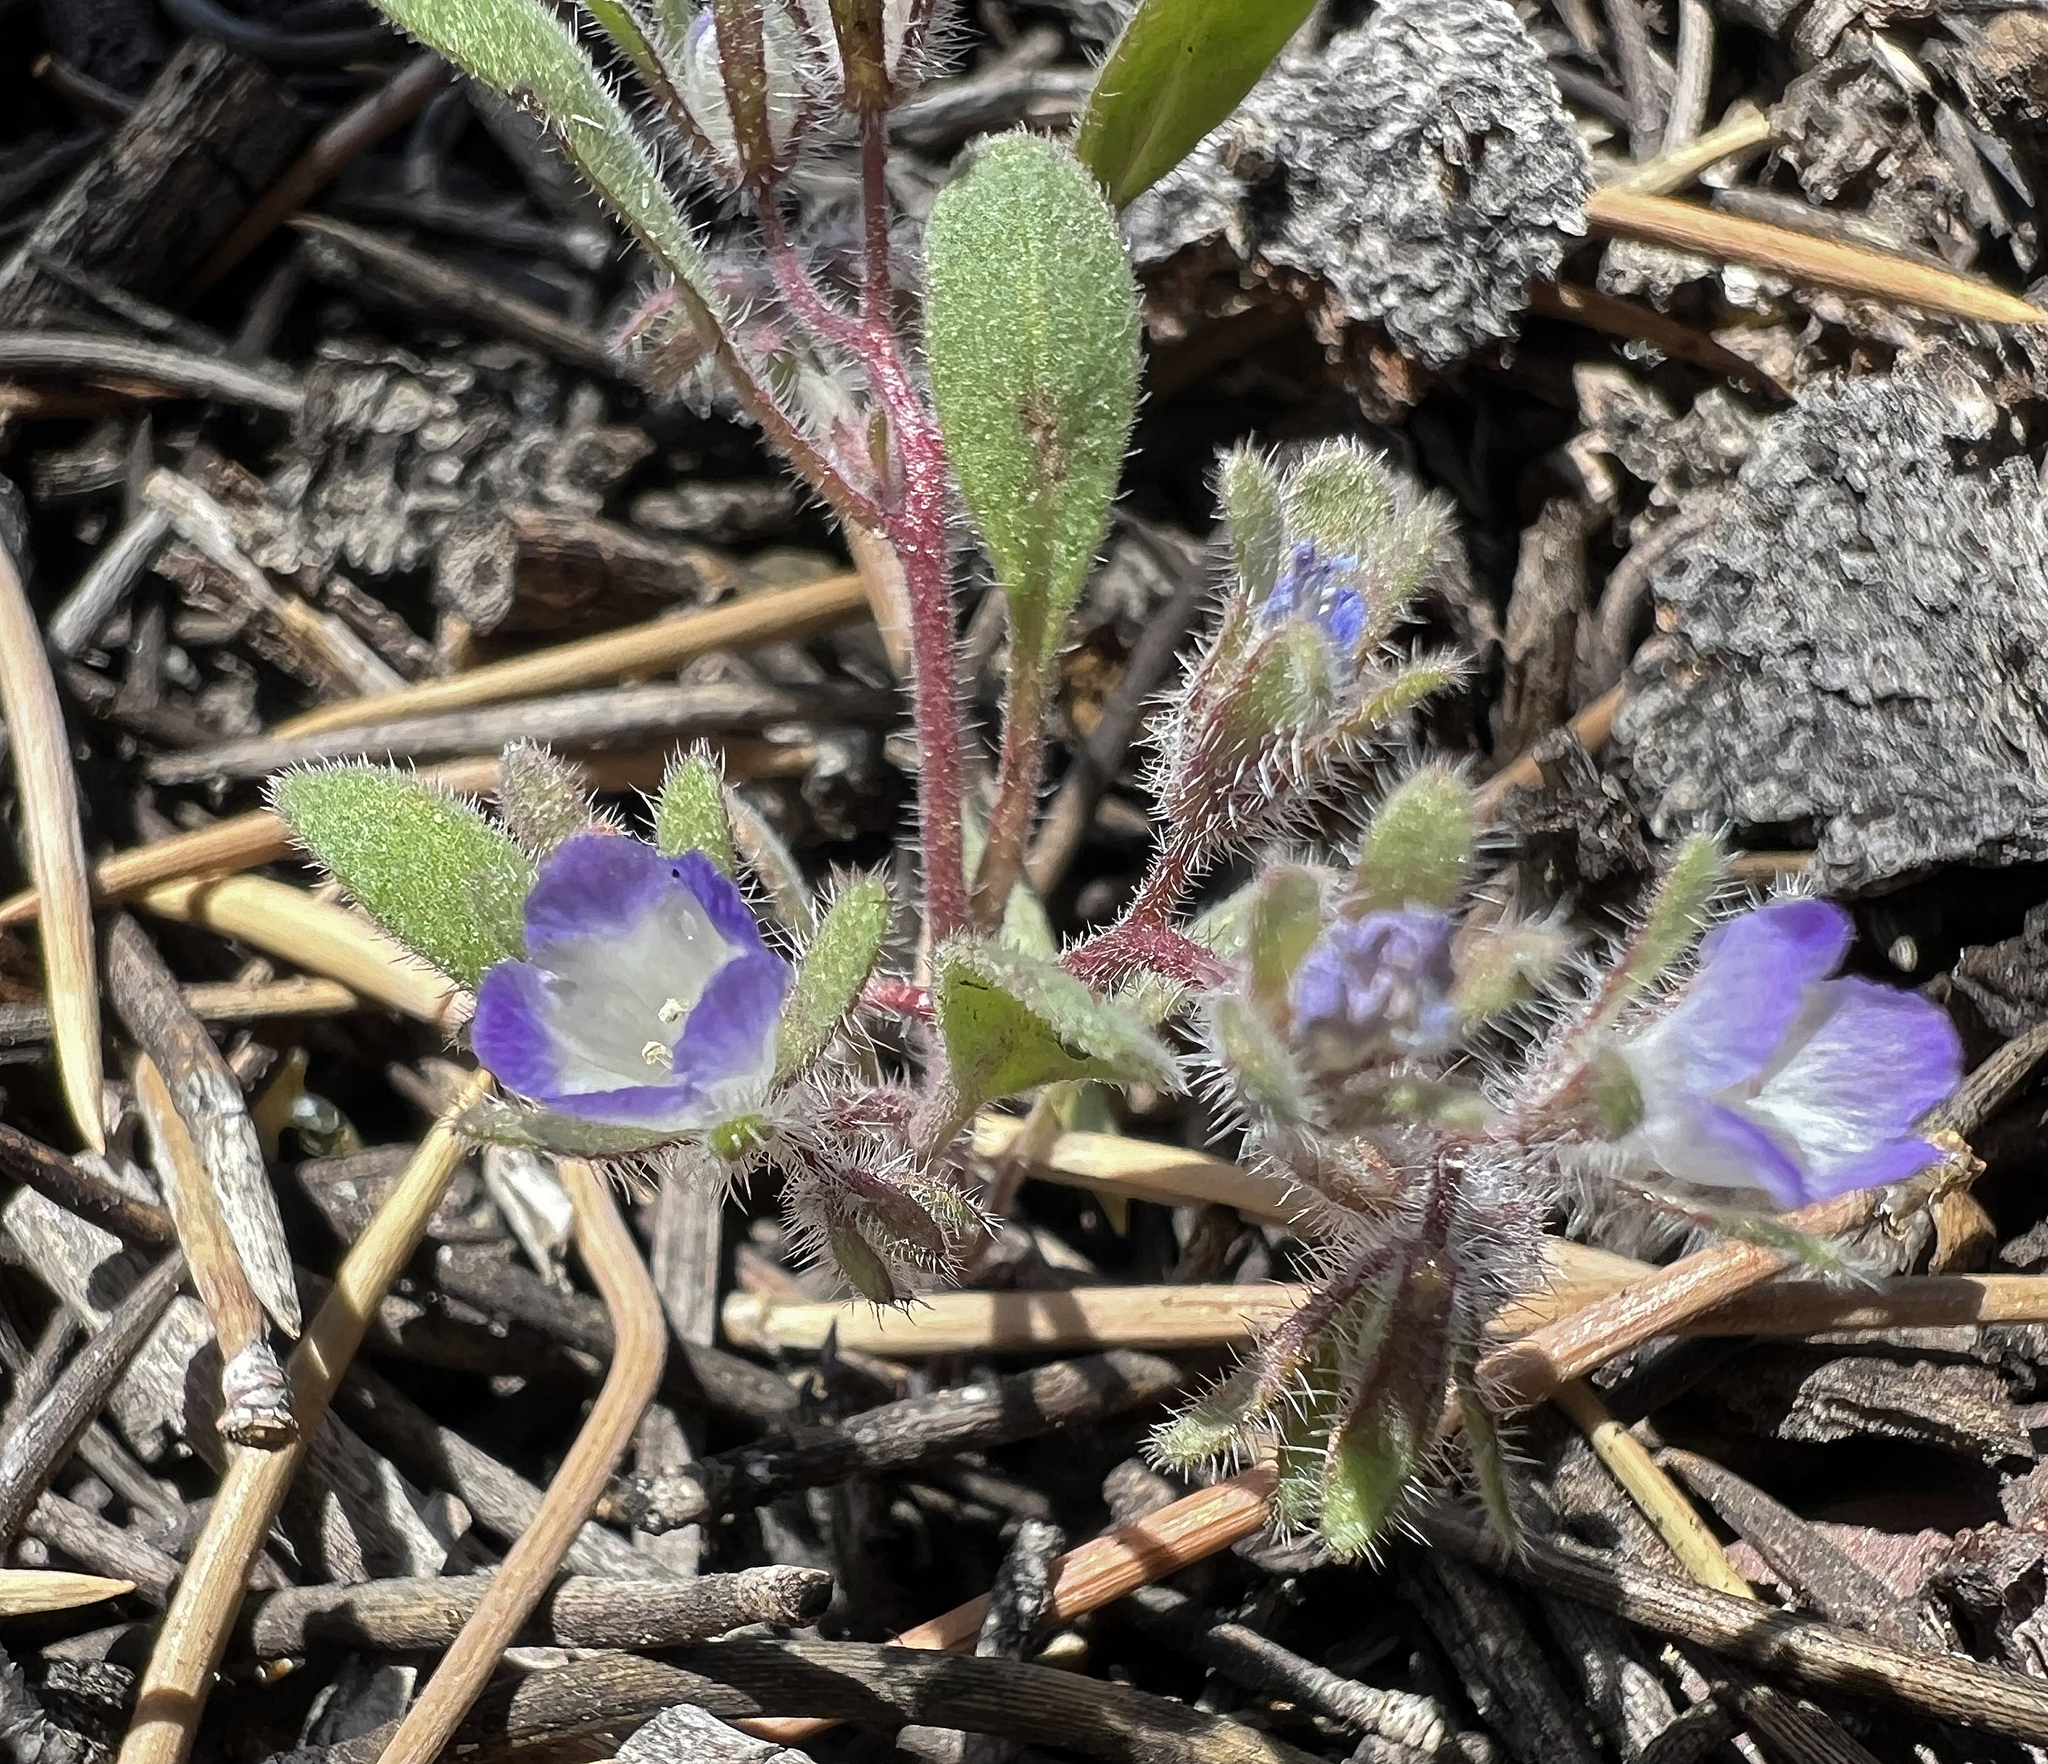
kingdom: Plantae
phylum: Tracheophyta
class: Magnoliopsida
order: Boraginales
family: Hydrophyllaceae
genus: Phacelia
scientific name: Phacelia curvipes
